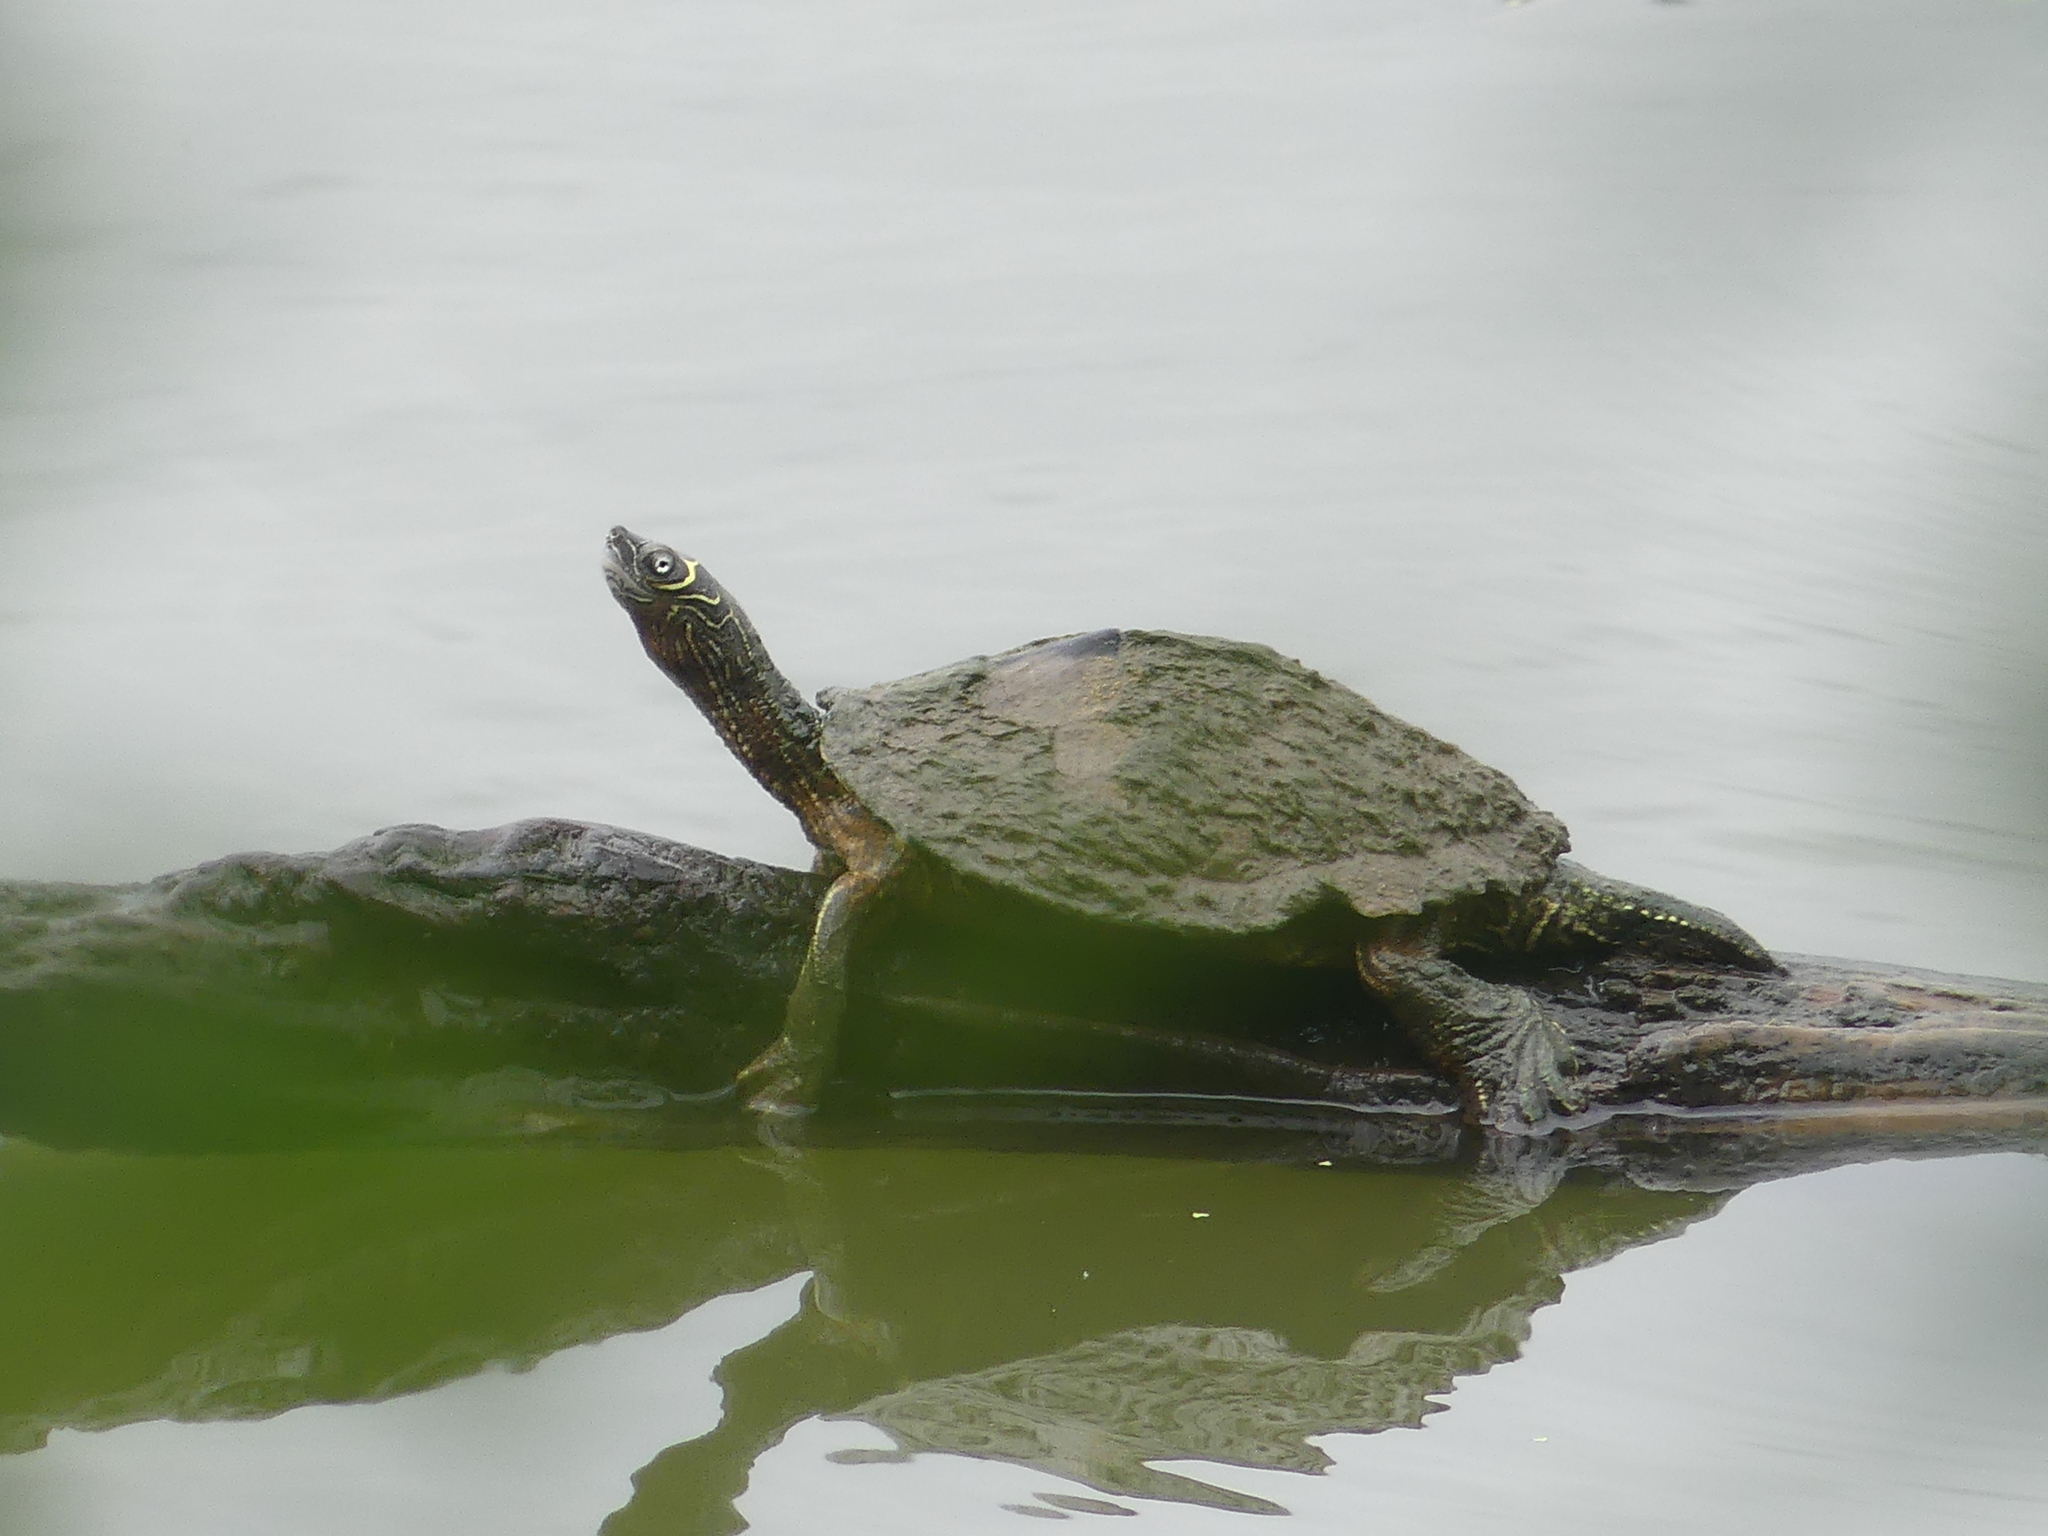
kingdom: Animalia
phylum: Chordata
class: Testudines
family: Emydidae
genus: Graptemys
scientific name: Graptemys pseudogeographica
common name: False map turtle
